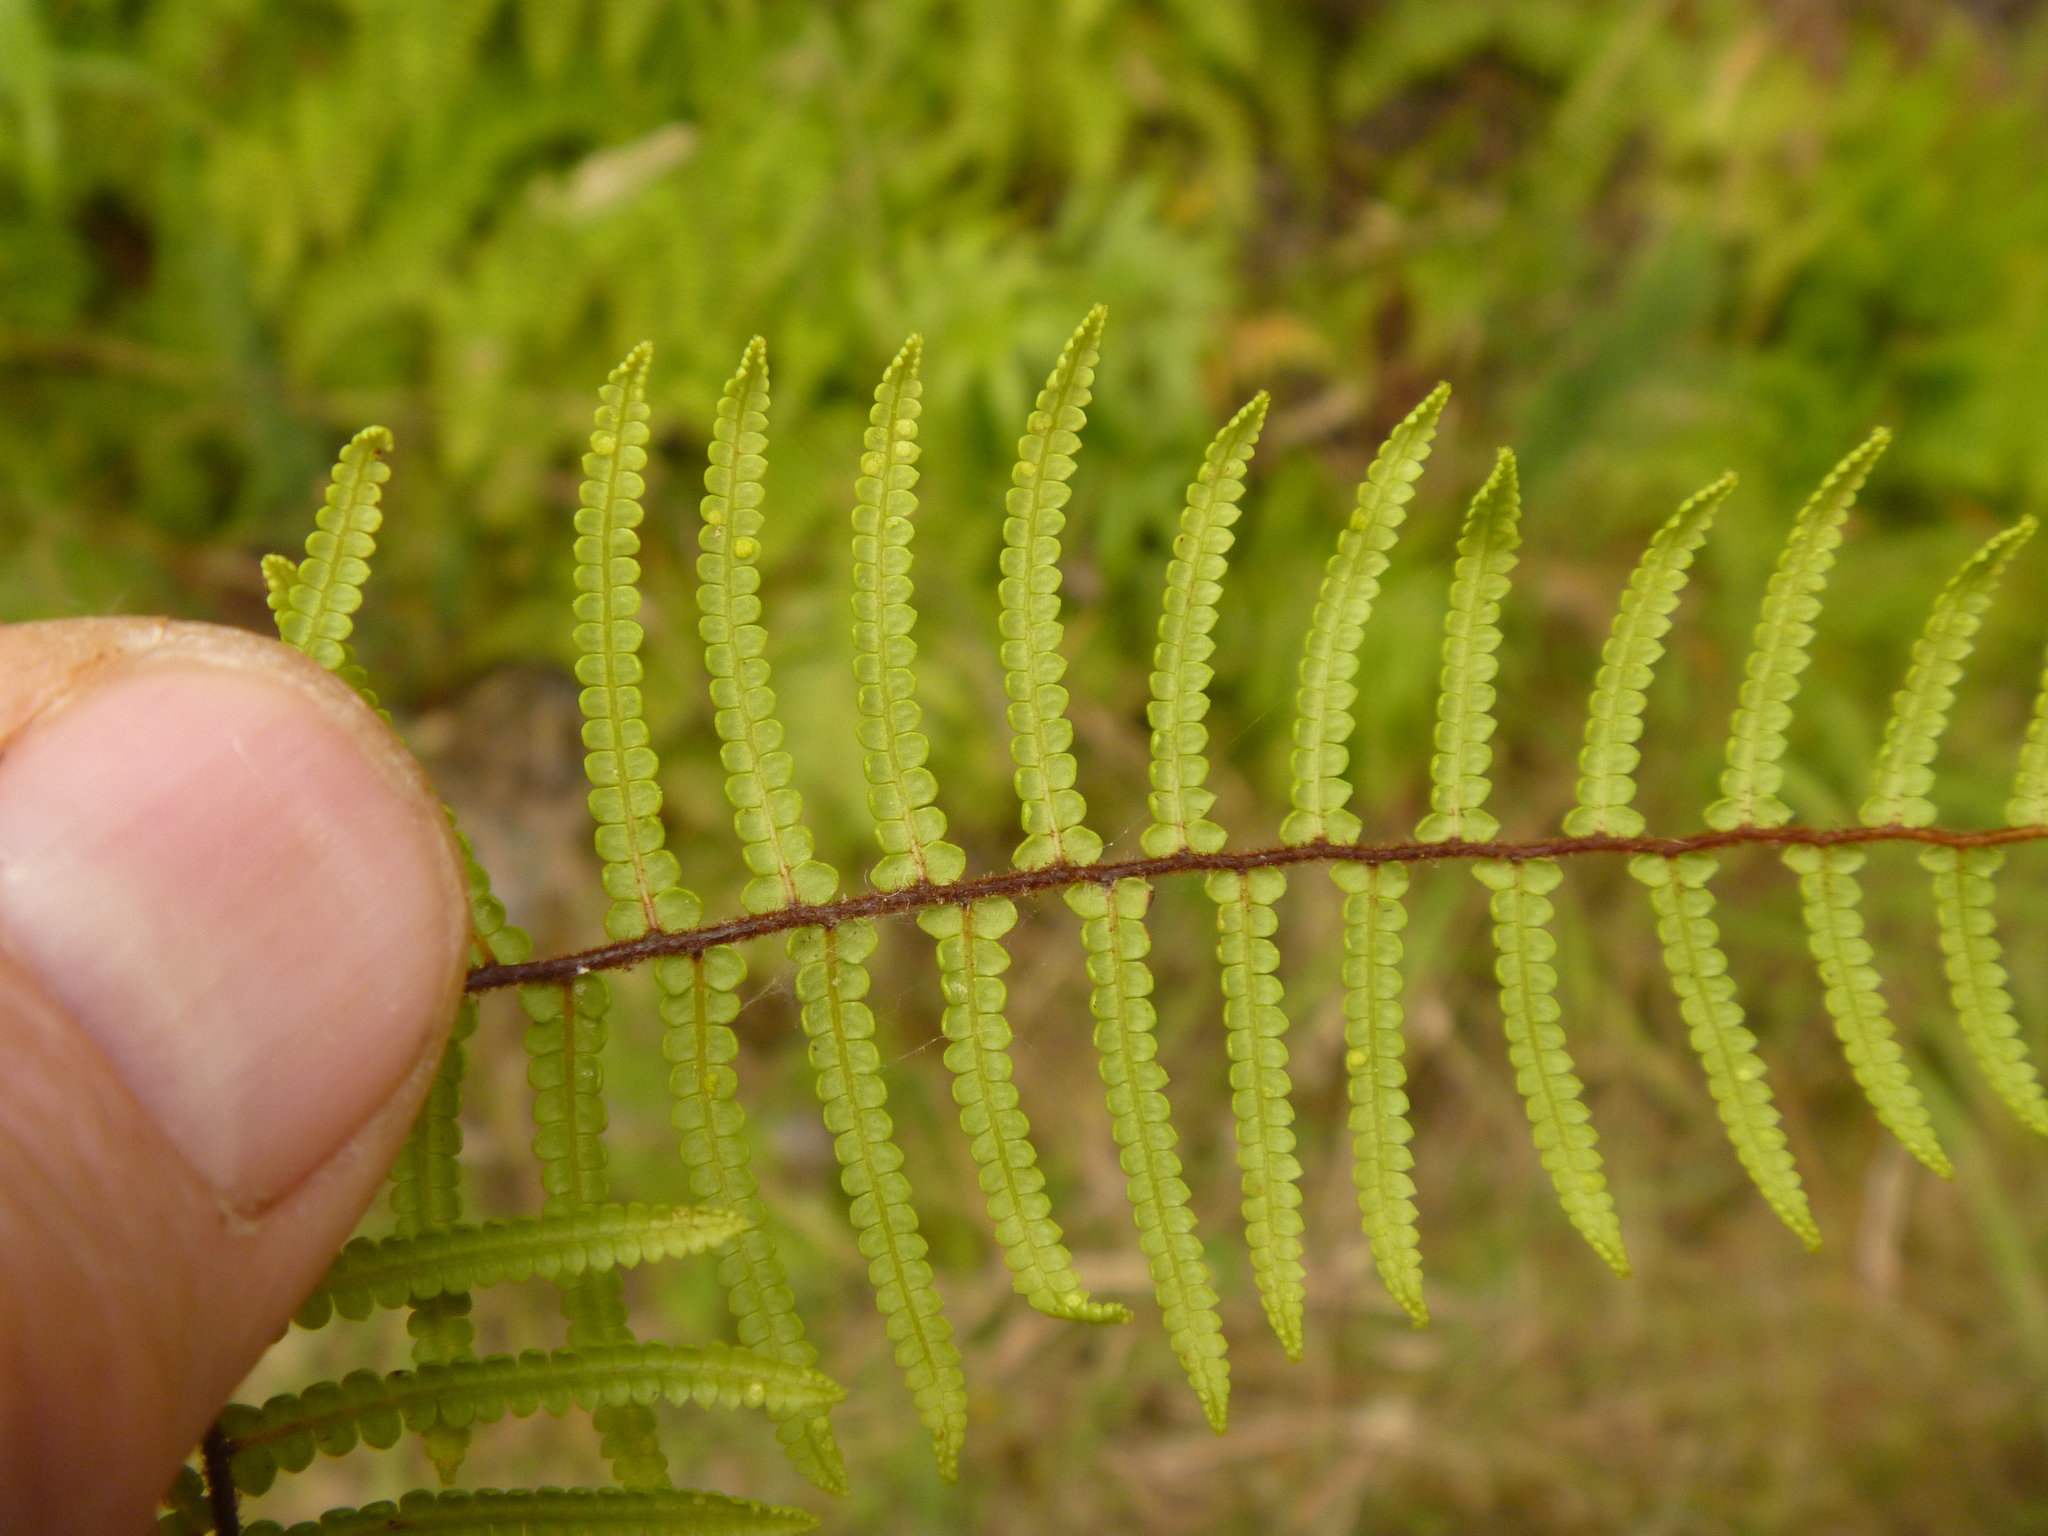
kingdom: Plantae
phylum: Tracheophyta
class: Polypodiopsida
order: Gleicheniales
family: Gleicheniaceae
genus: Gleichenia
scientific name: Gleichenia microphylla
